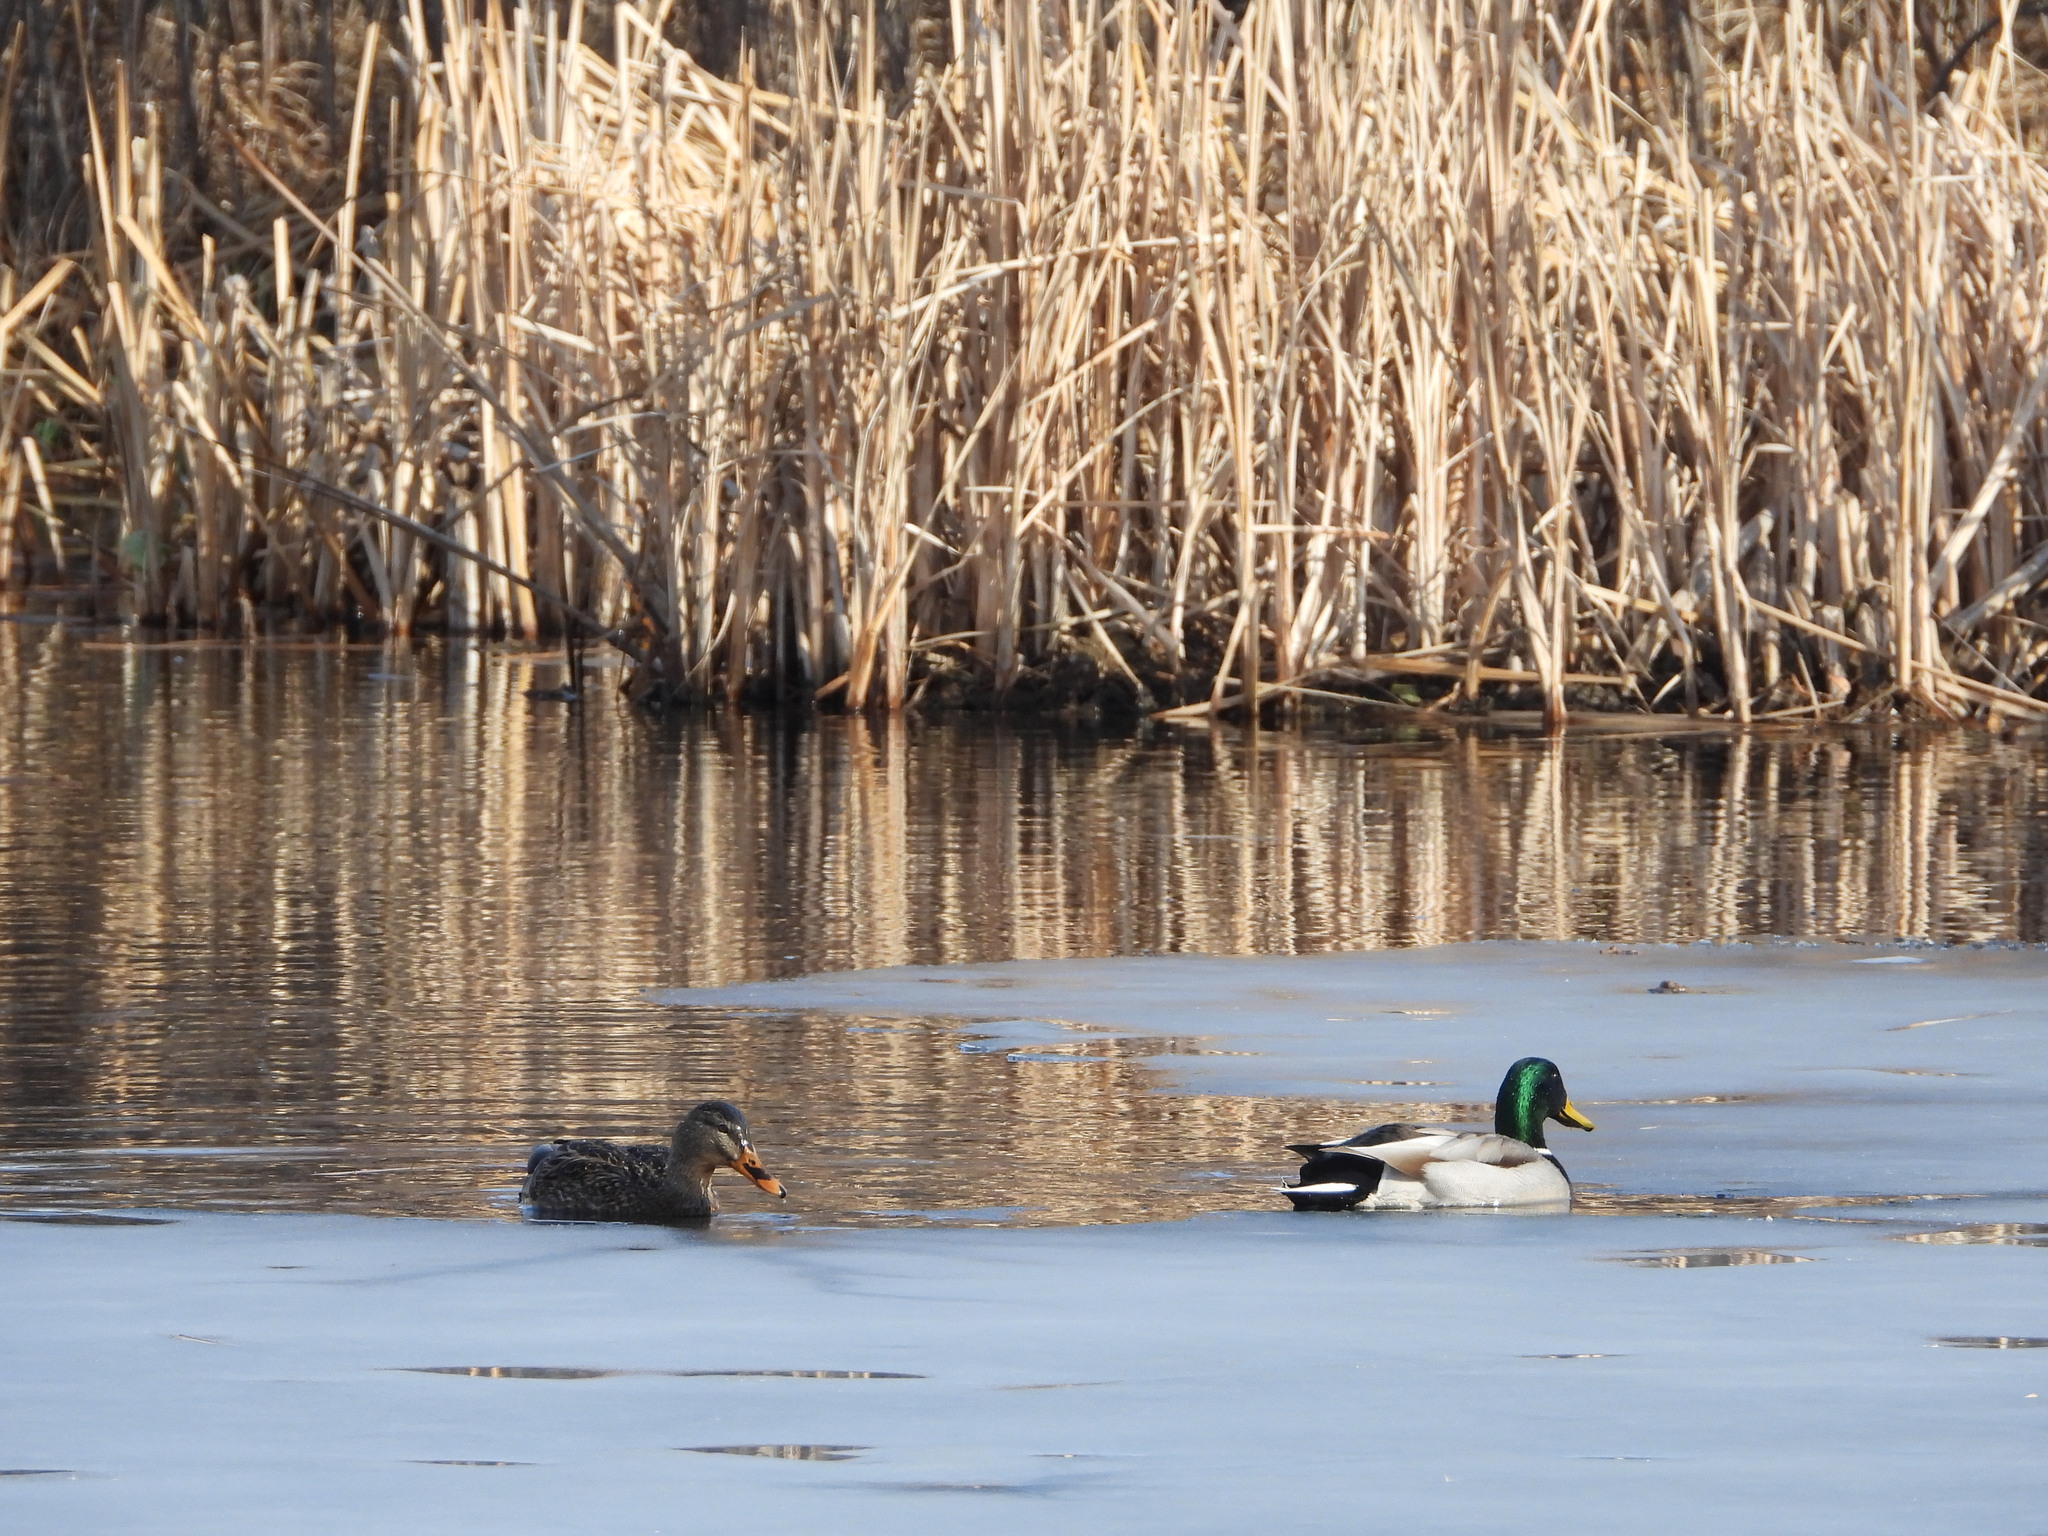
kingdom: Animalia
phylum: Chordata
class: Aves
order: Anseriformes
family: Anatidae
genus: Anas
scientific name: Anas platyrhynchos
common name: Mallard
